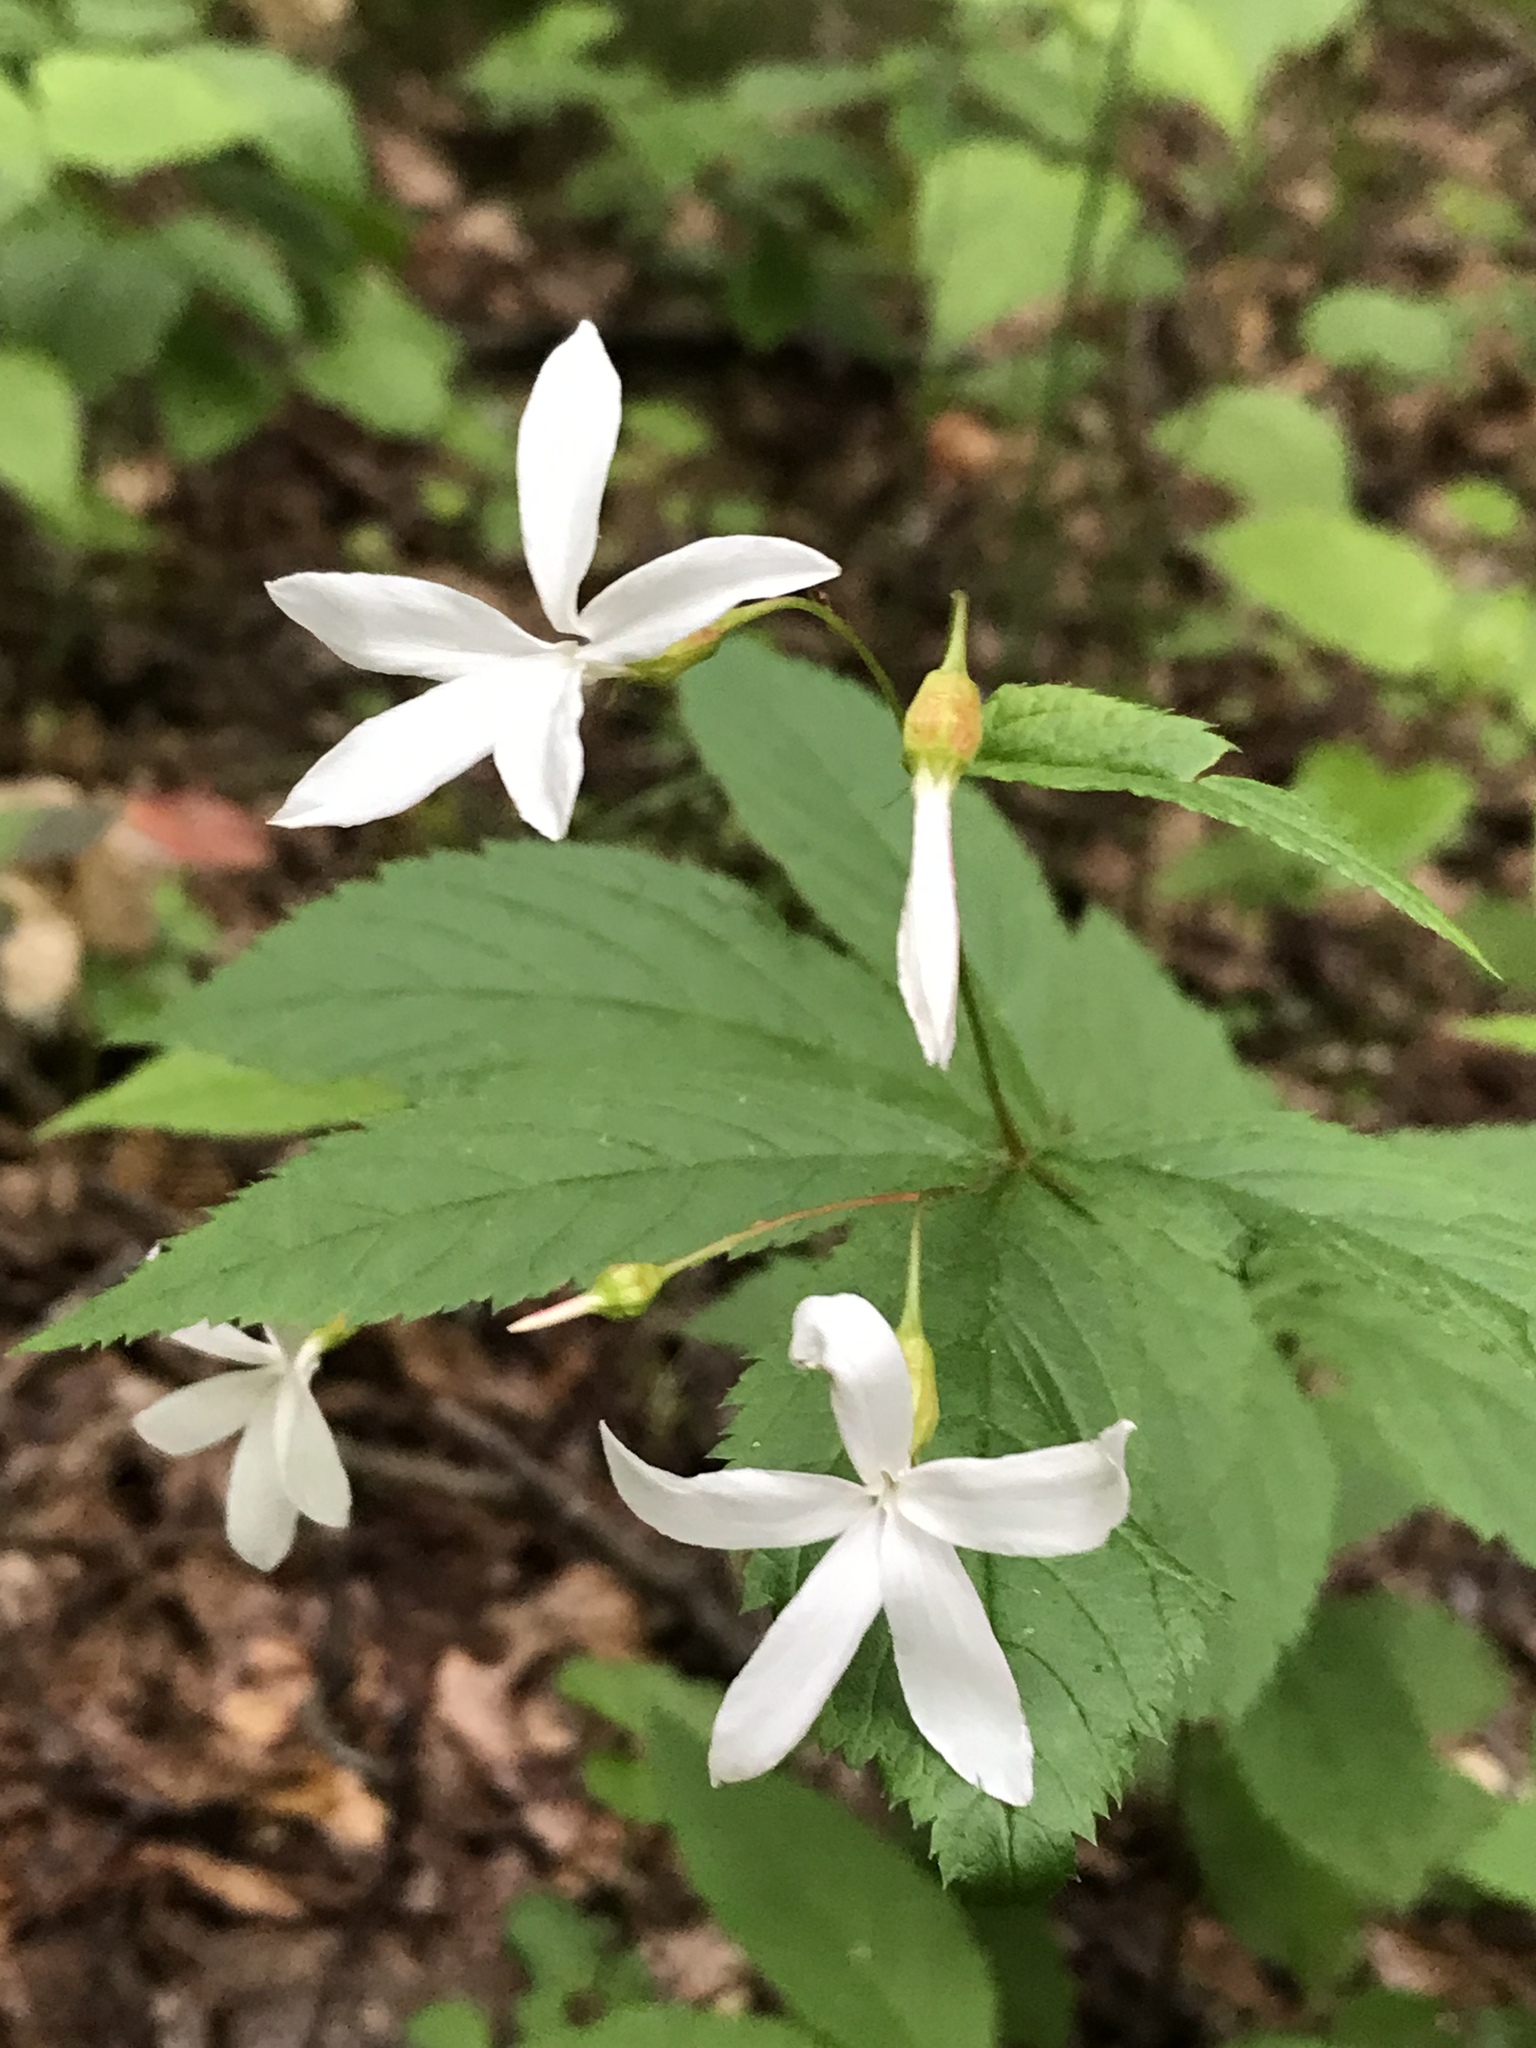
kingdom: Plantae
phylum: Tracheophyta
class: Magnoliopsida
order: Rosales
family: Rosaceae
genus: Gillenia
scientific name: Gillenia trifoliata
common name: Bowman's-root
